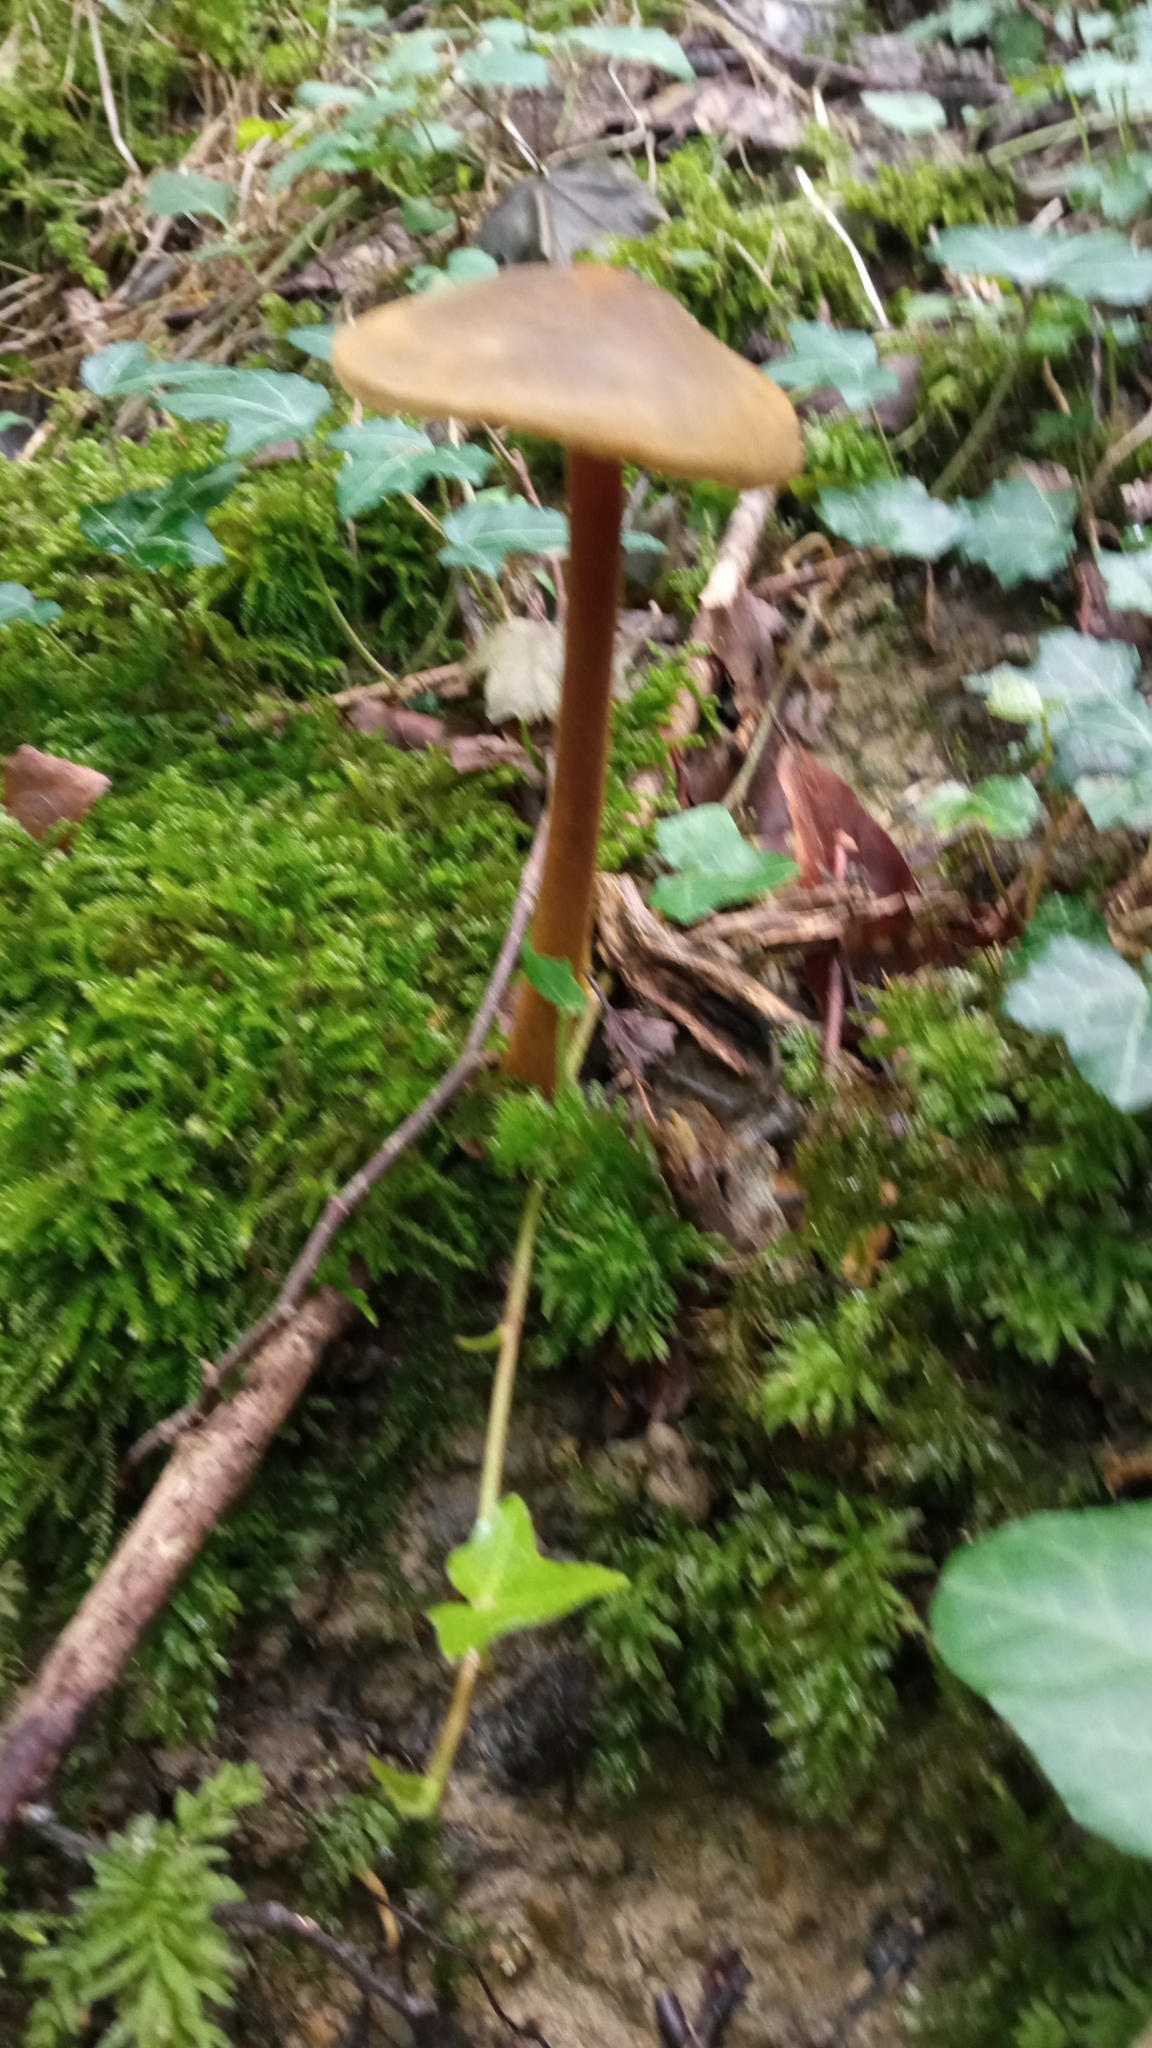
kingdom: Fungi
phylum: Basidiomycota
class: Agaricomycetes
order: Agaricales
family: Physalacriaceae
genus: Xerula
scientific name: Xerula pudens
